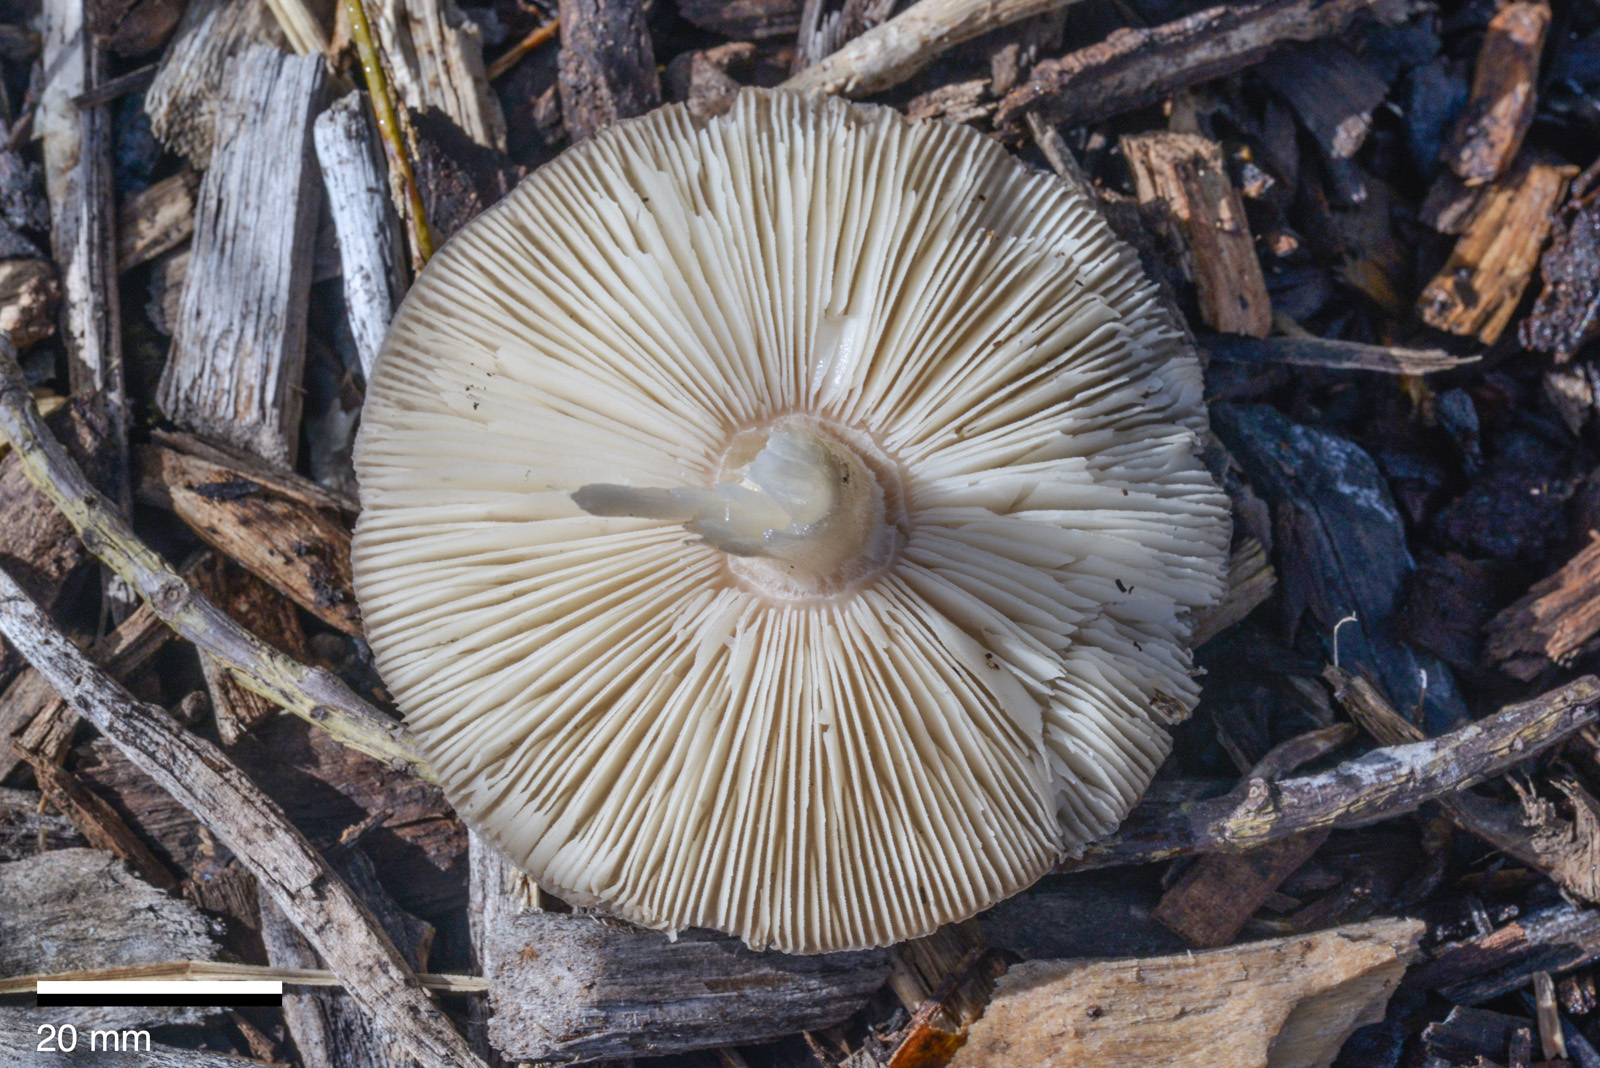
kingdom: Fungi
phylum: Basidiomycota
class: Agaricomycetes
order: Agaricales
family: Pluteaceae
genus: Volvopluteus
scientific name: Volvopluteus gloiocephalus
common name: Stubble rosegill
